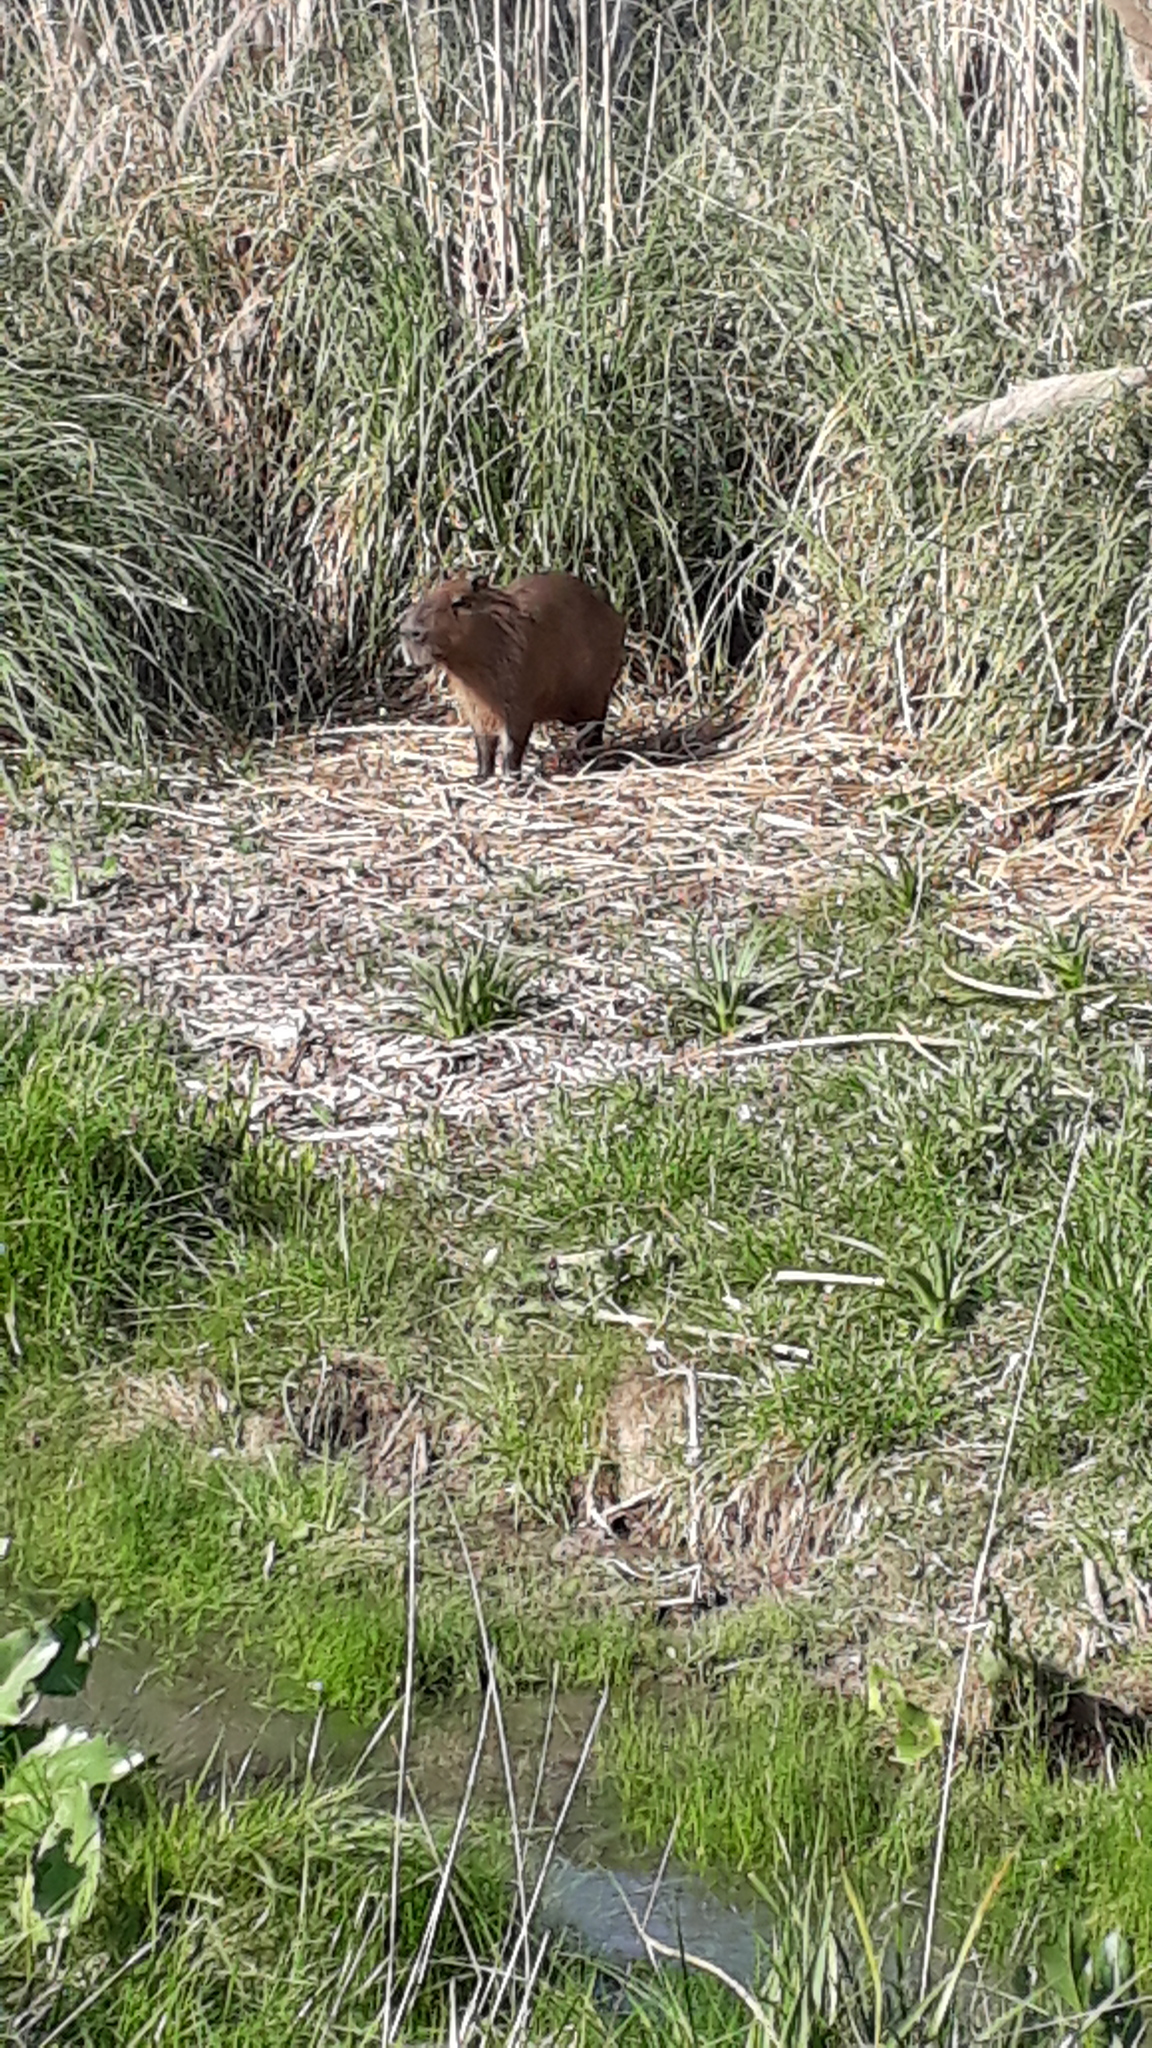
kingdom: Animalia
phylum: Chordata
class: Mammalia
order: Rodentia
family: Caviidae
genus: Hydrochoerus
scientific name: Hydrochoerus hydrochaeris
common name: Capybara
